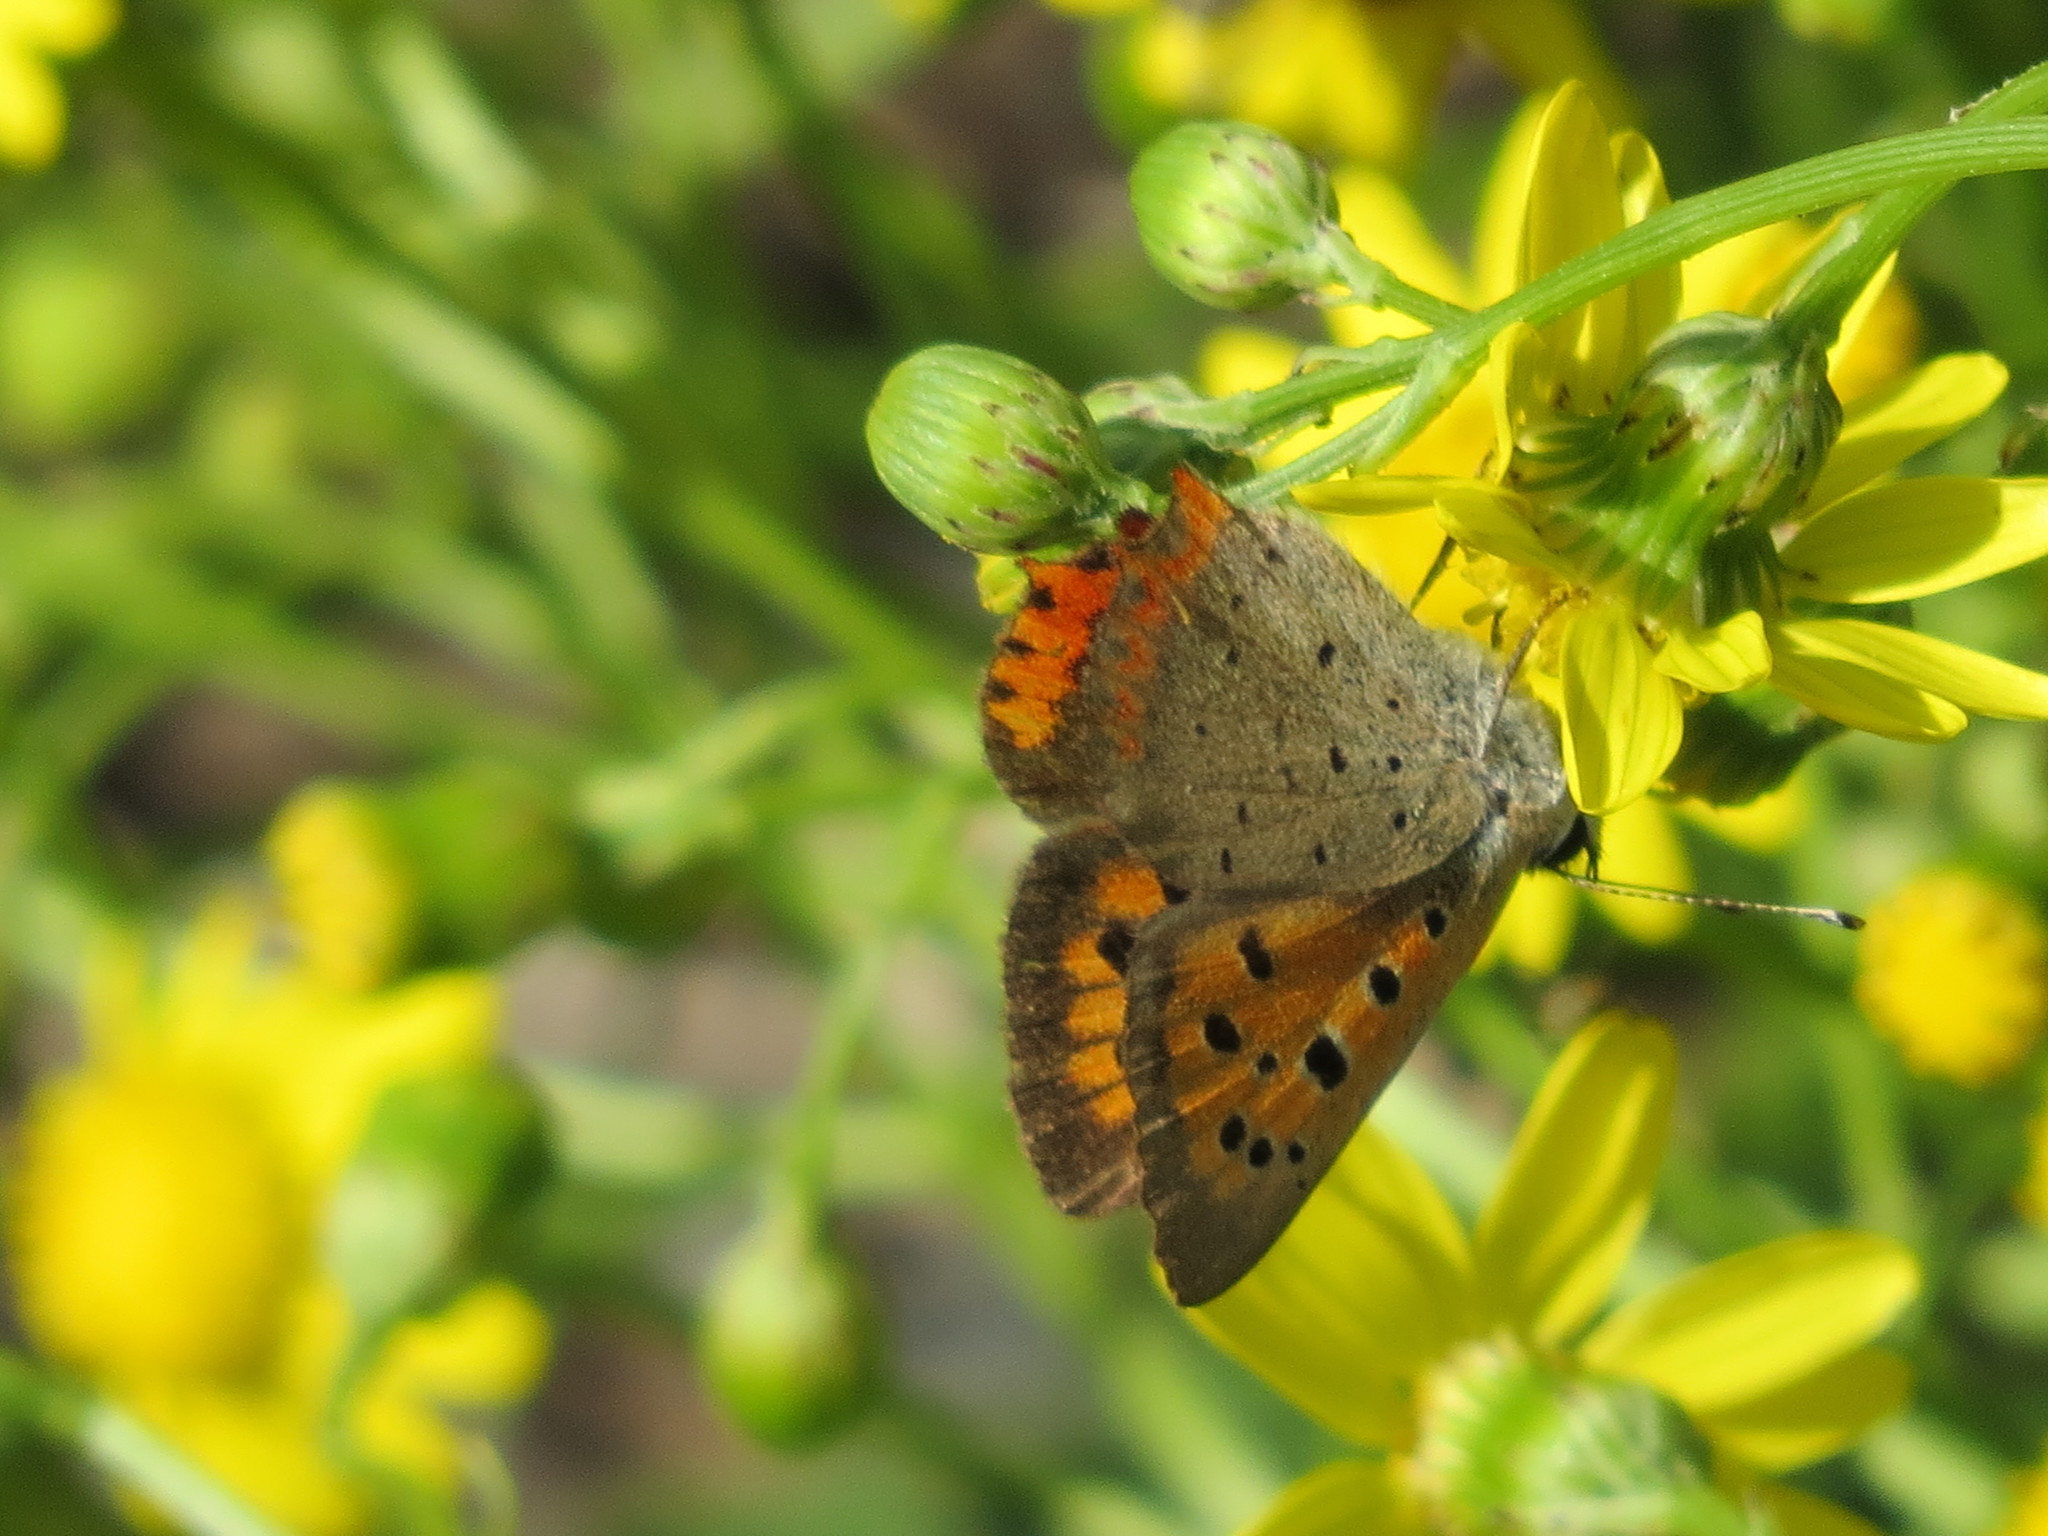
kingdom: Animalia
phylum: Arthropoda
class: Insecta
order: Lepidoptera
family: Lycaenidae
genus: Lycaena
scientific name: Lycaena phlaeas
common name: Small copper
